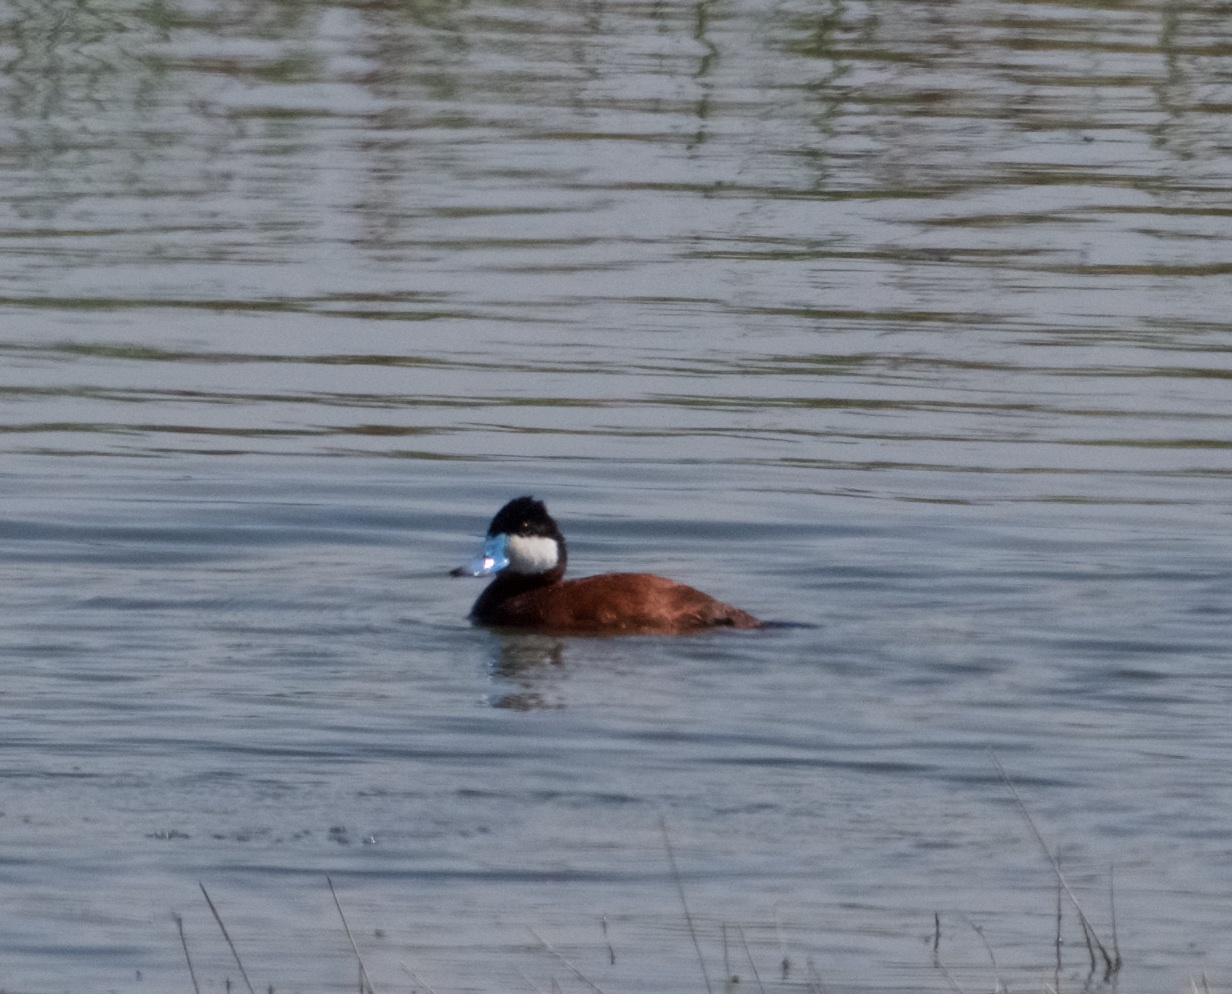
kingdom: Animalia
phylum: Chordata
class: Aves
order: Anseriformes
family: Anatidae
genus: Oxyura
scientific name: Oxyura jamaicensis
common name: Ruddy duck
